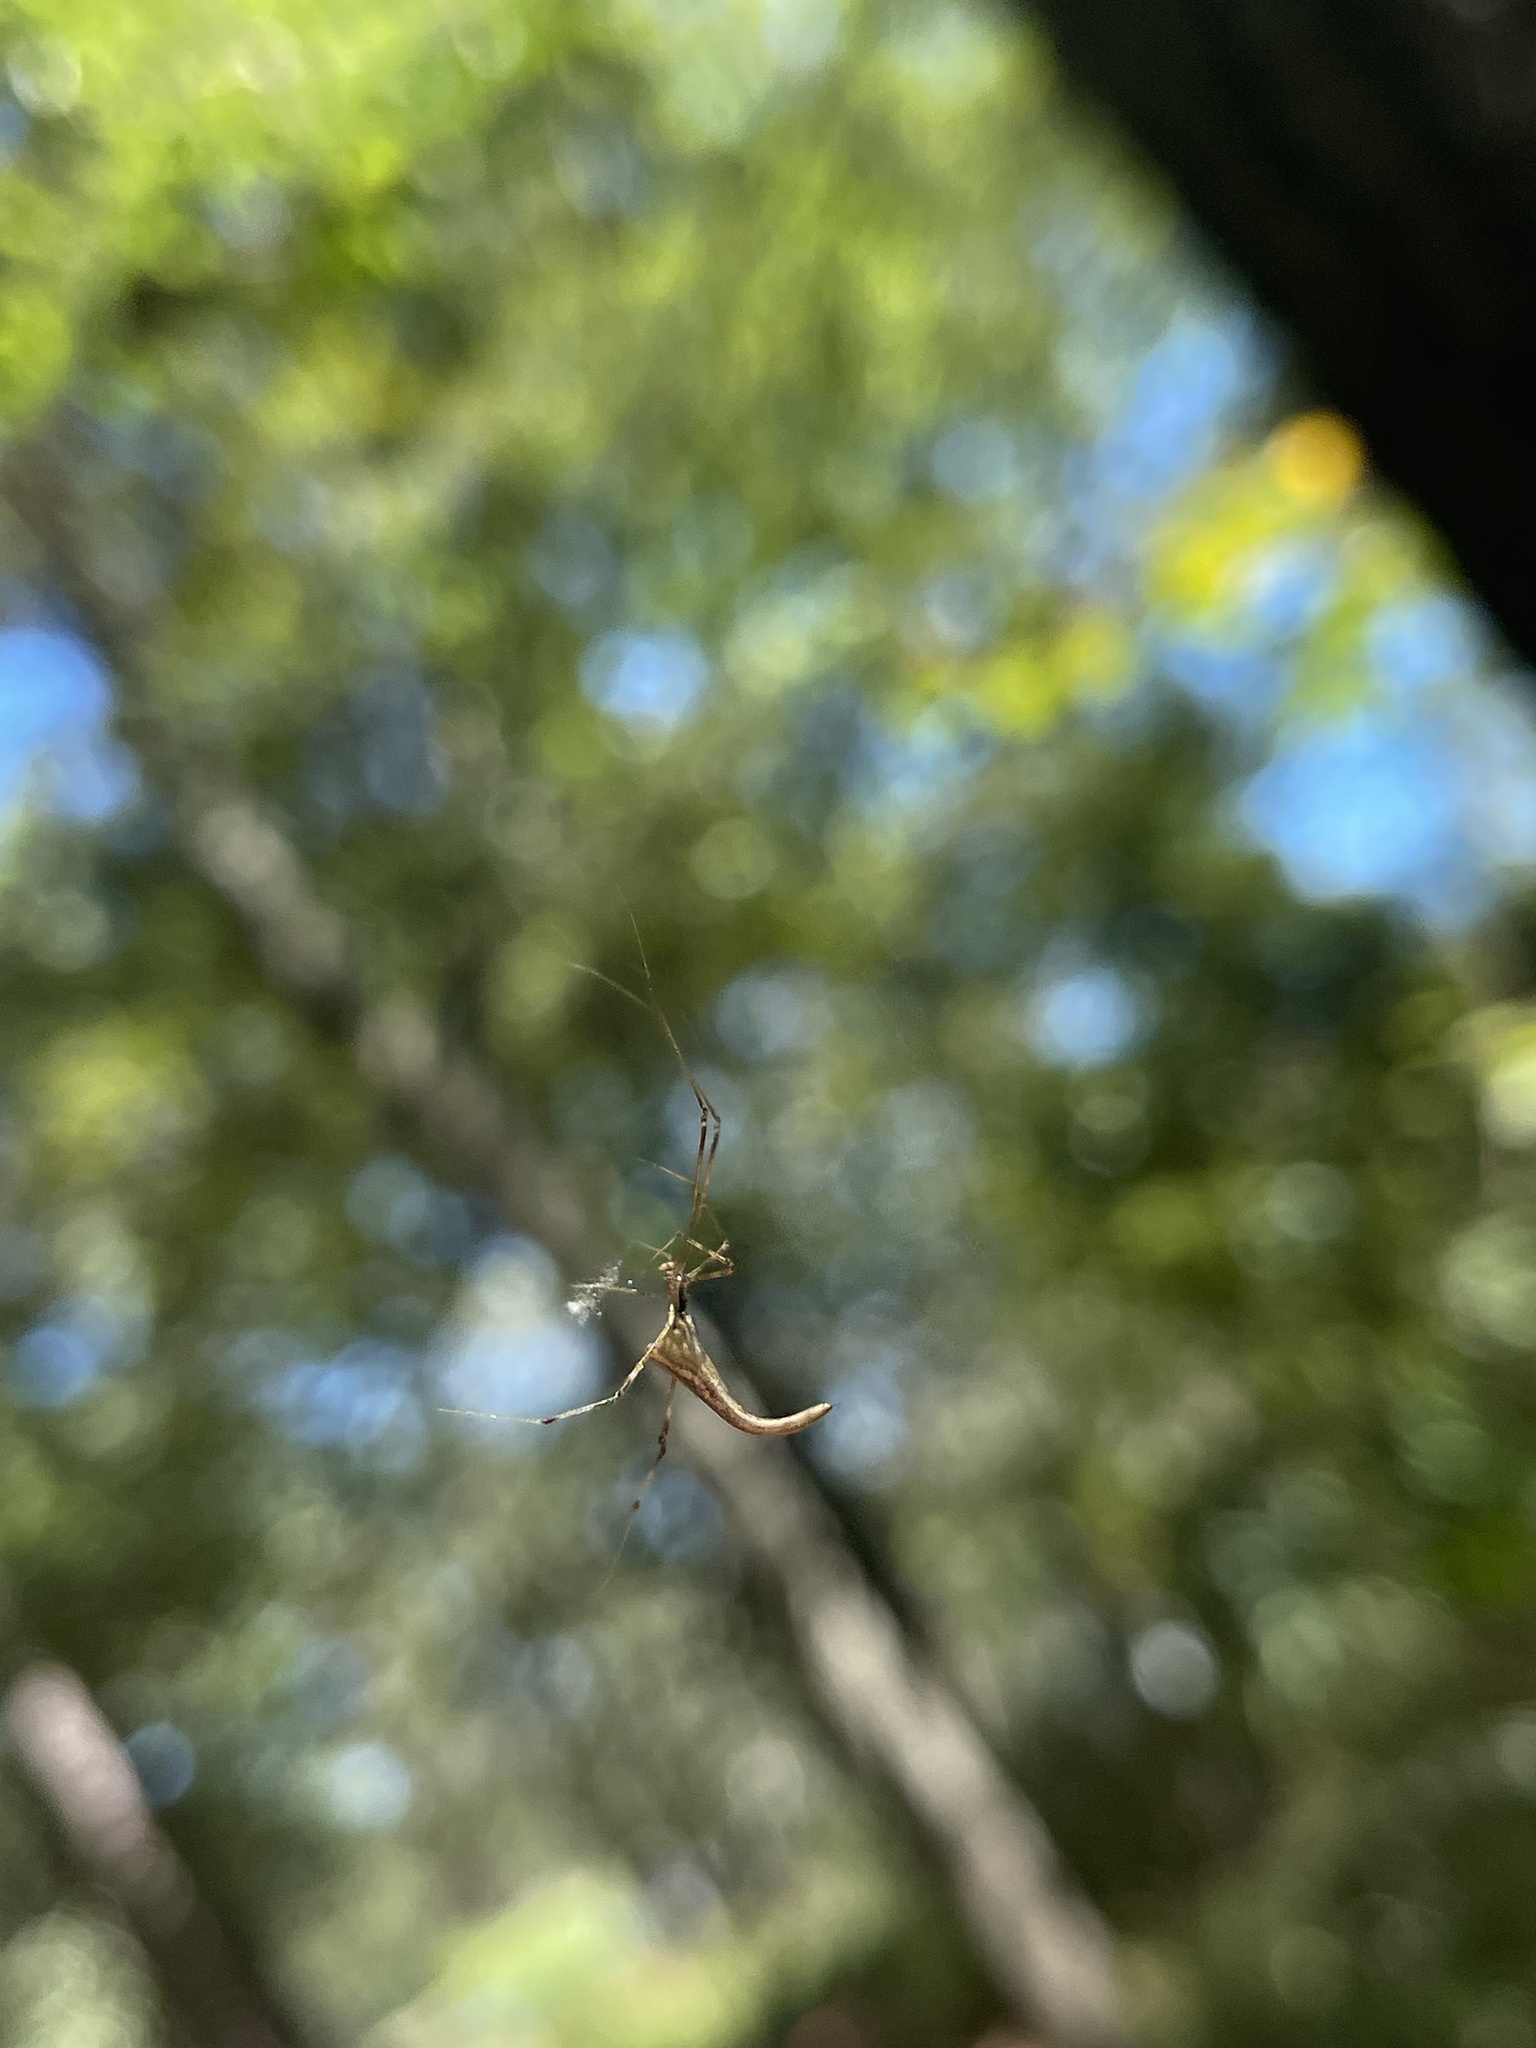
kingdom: Animalia
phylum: Arthropoda
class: Arachnida
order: Araneae
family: Theridiidae
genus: Rhomphaea
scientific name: Rhomphaea projiciens
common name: Cobweb spiders
